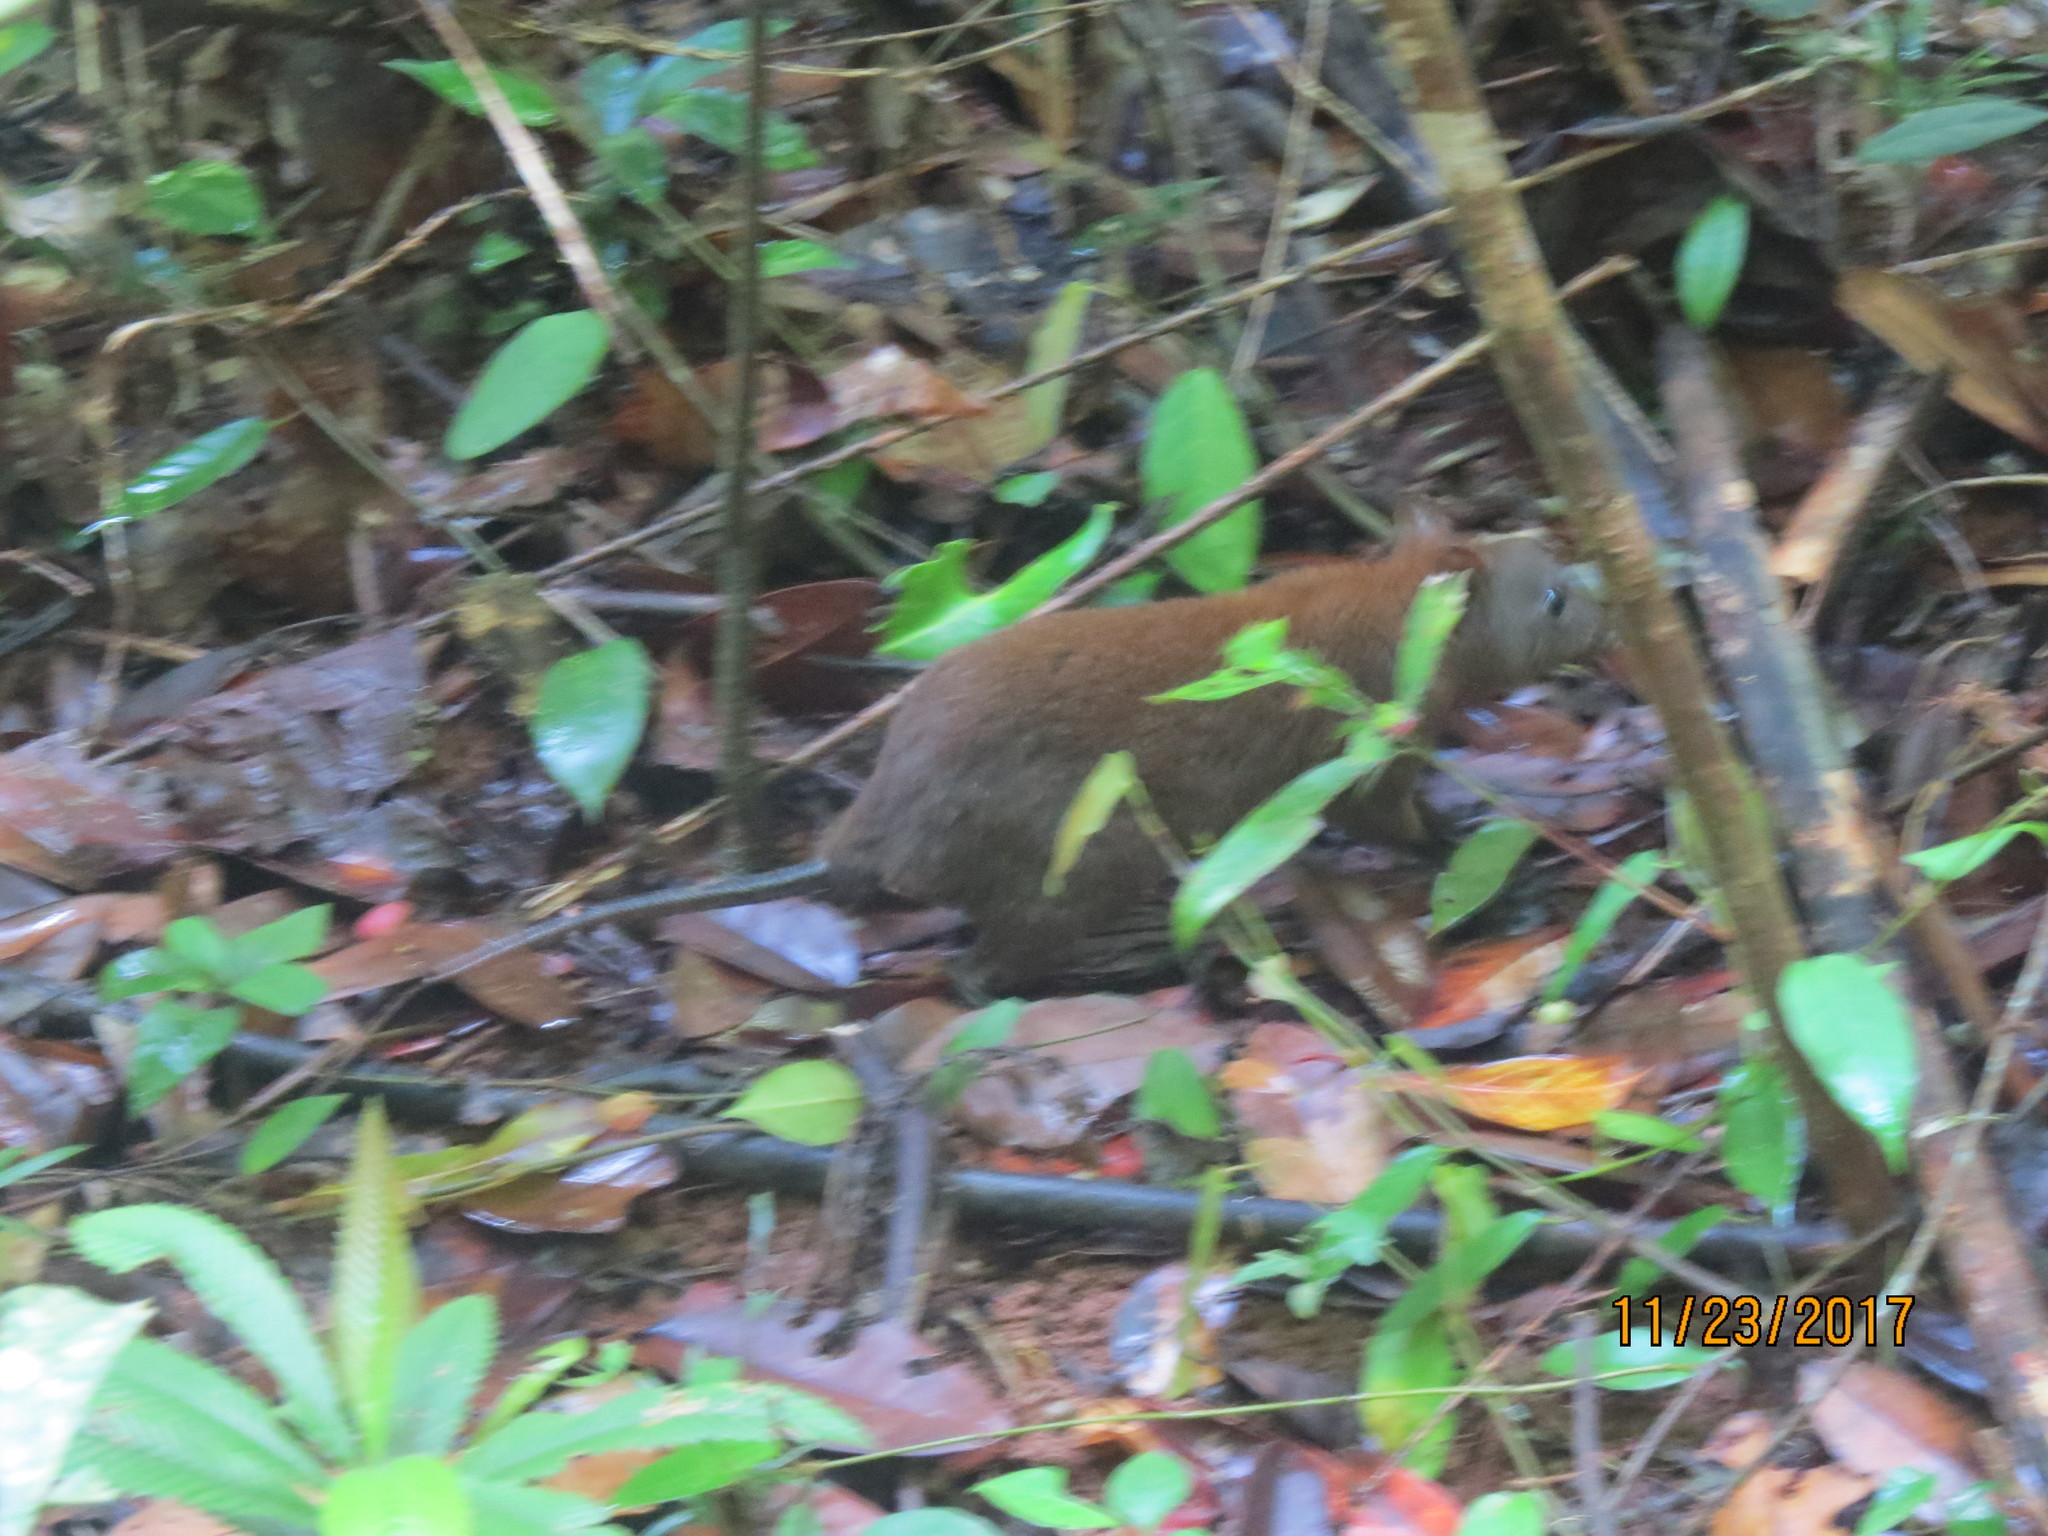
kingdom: Animalia
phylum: Chordata
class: Mammalia
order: Diprotodontia
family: Hypsiprymnodontidae
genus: Hypsiprymnodon
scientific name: Hypsiprymnodon moschatus
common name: Musky rat-kangaroo
